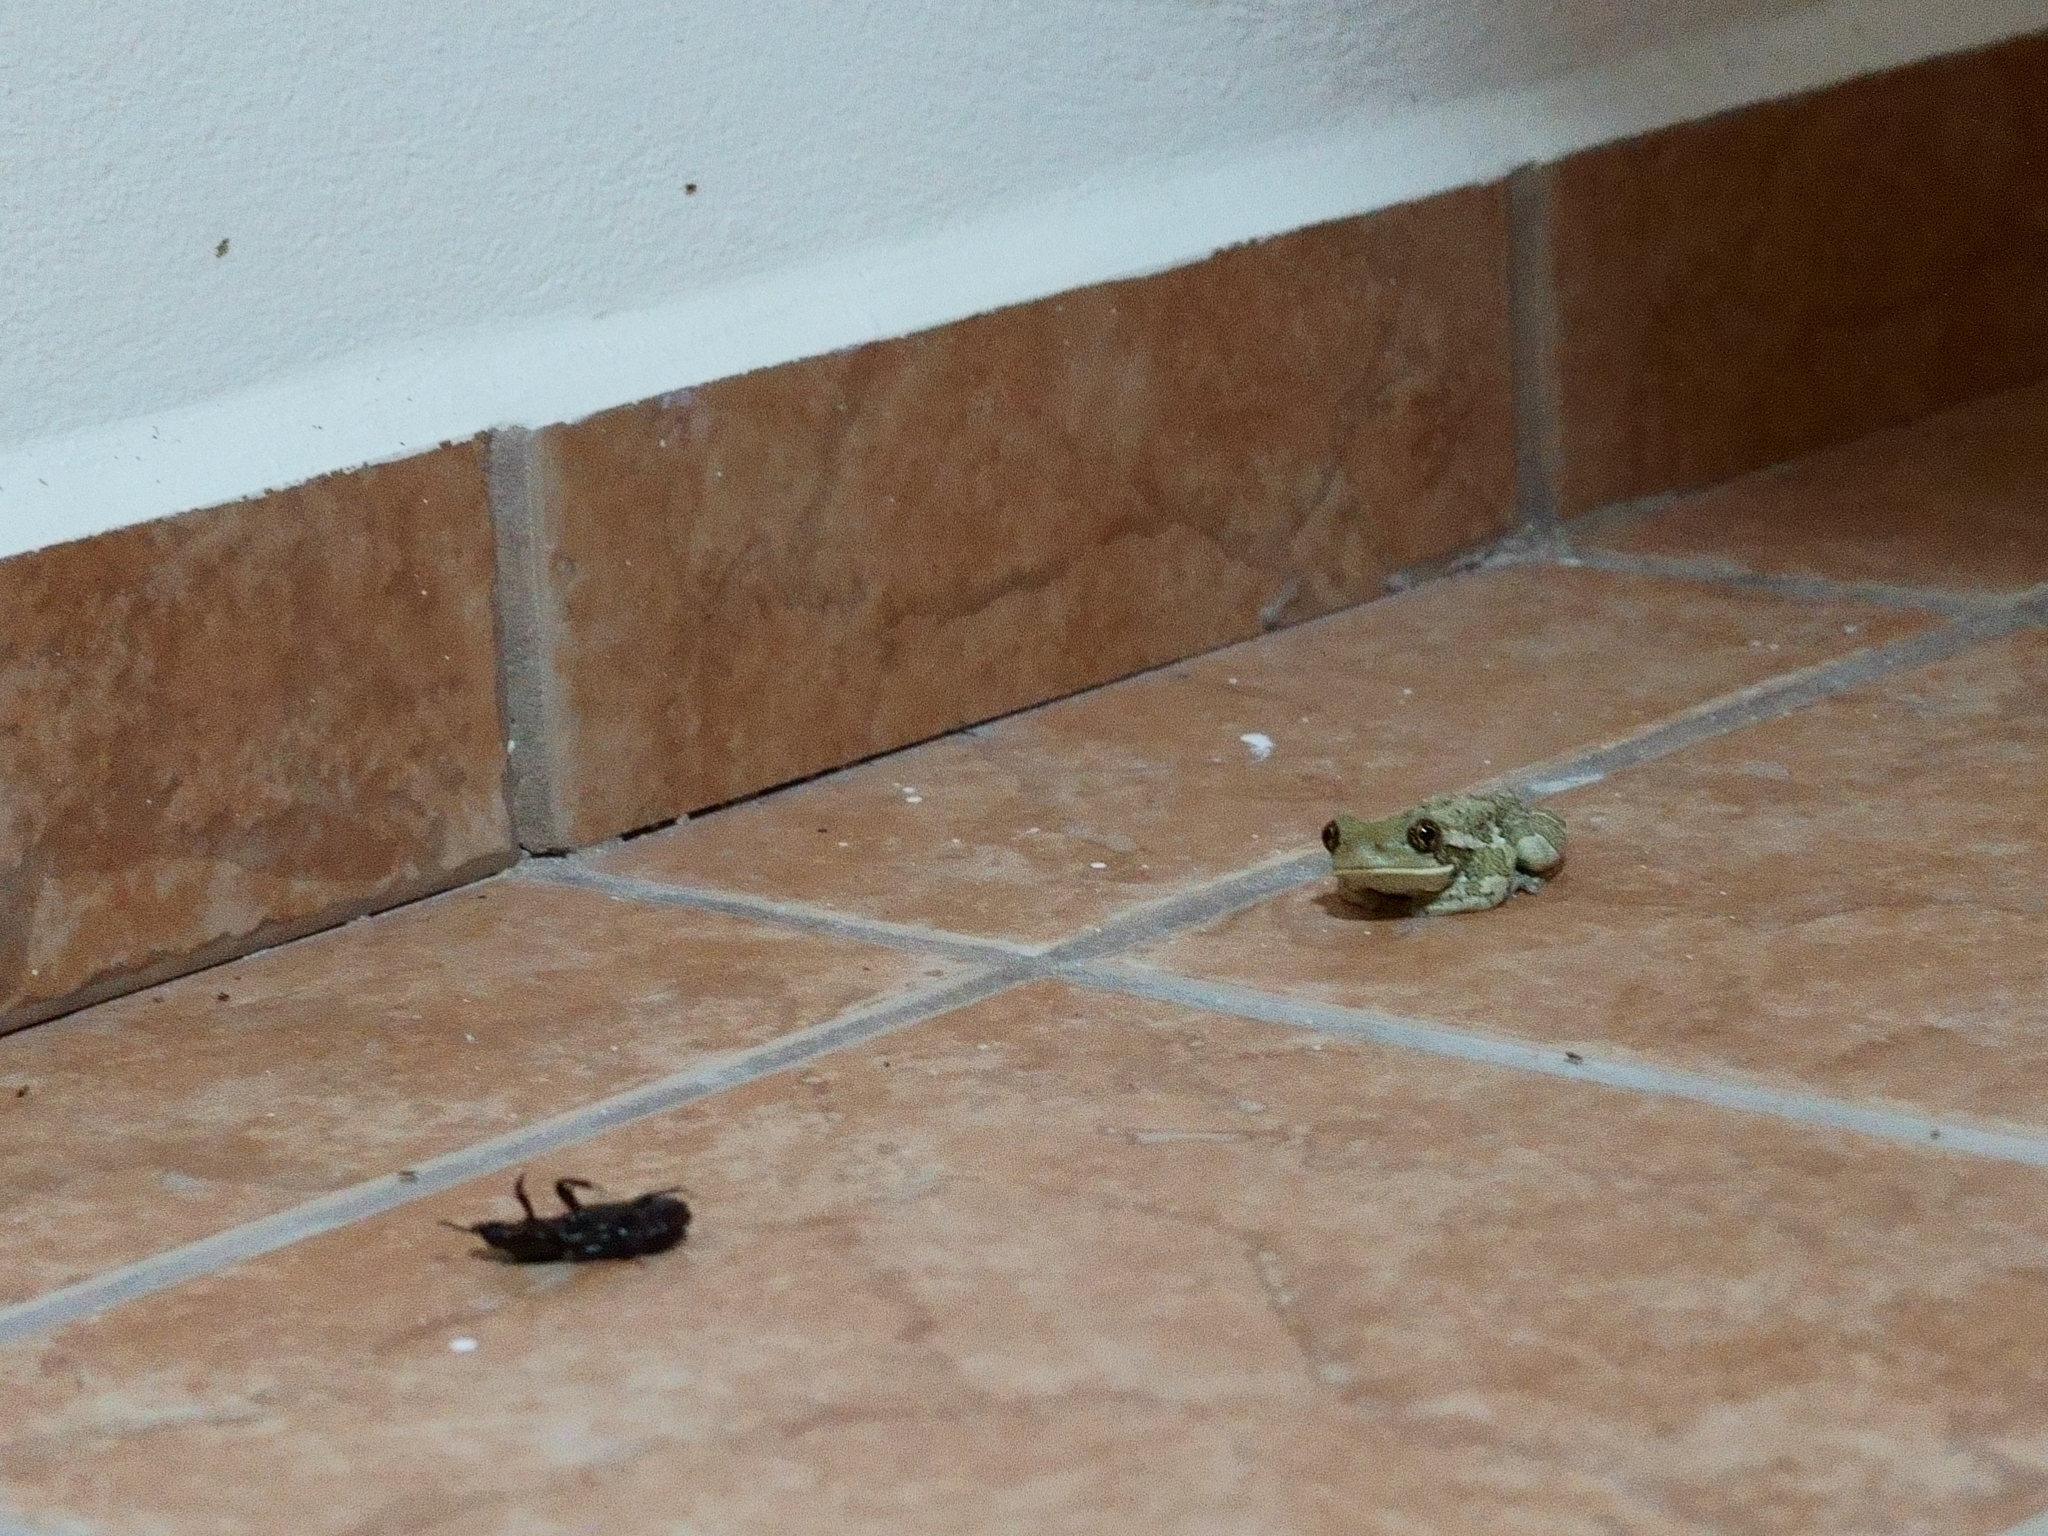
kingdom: Animalia
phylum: Chordata
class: Amphibia
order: Anura
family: Hylidae
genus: Trachycephalus
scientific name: Trachycephalus vermiculatus
